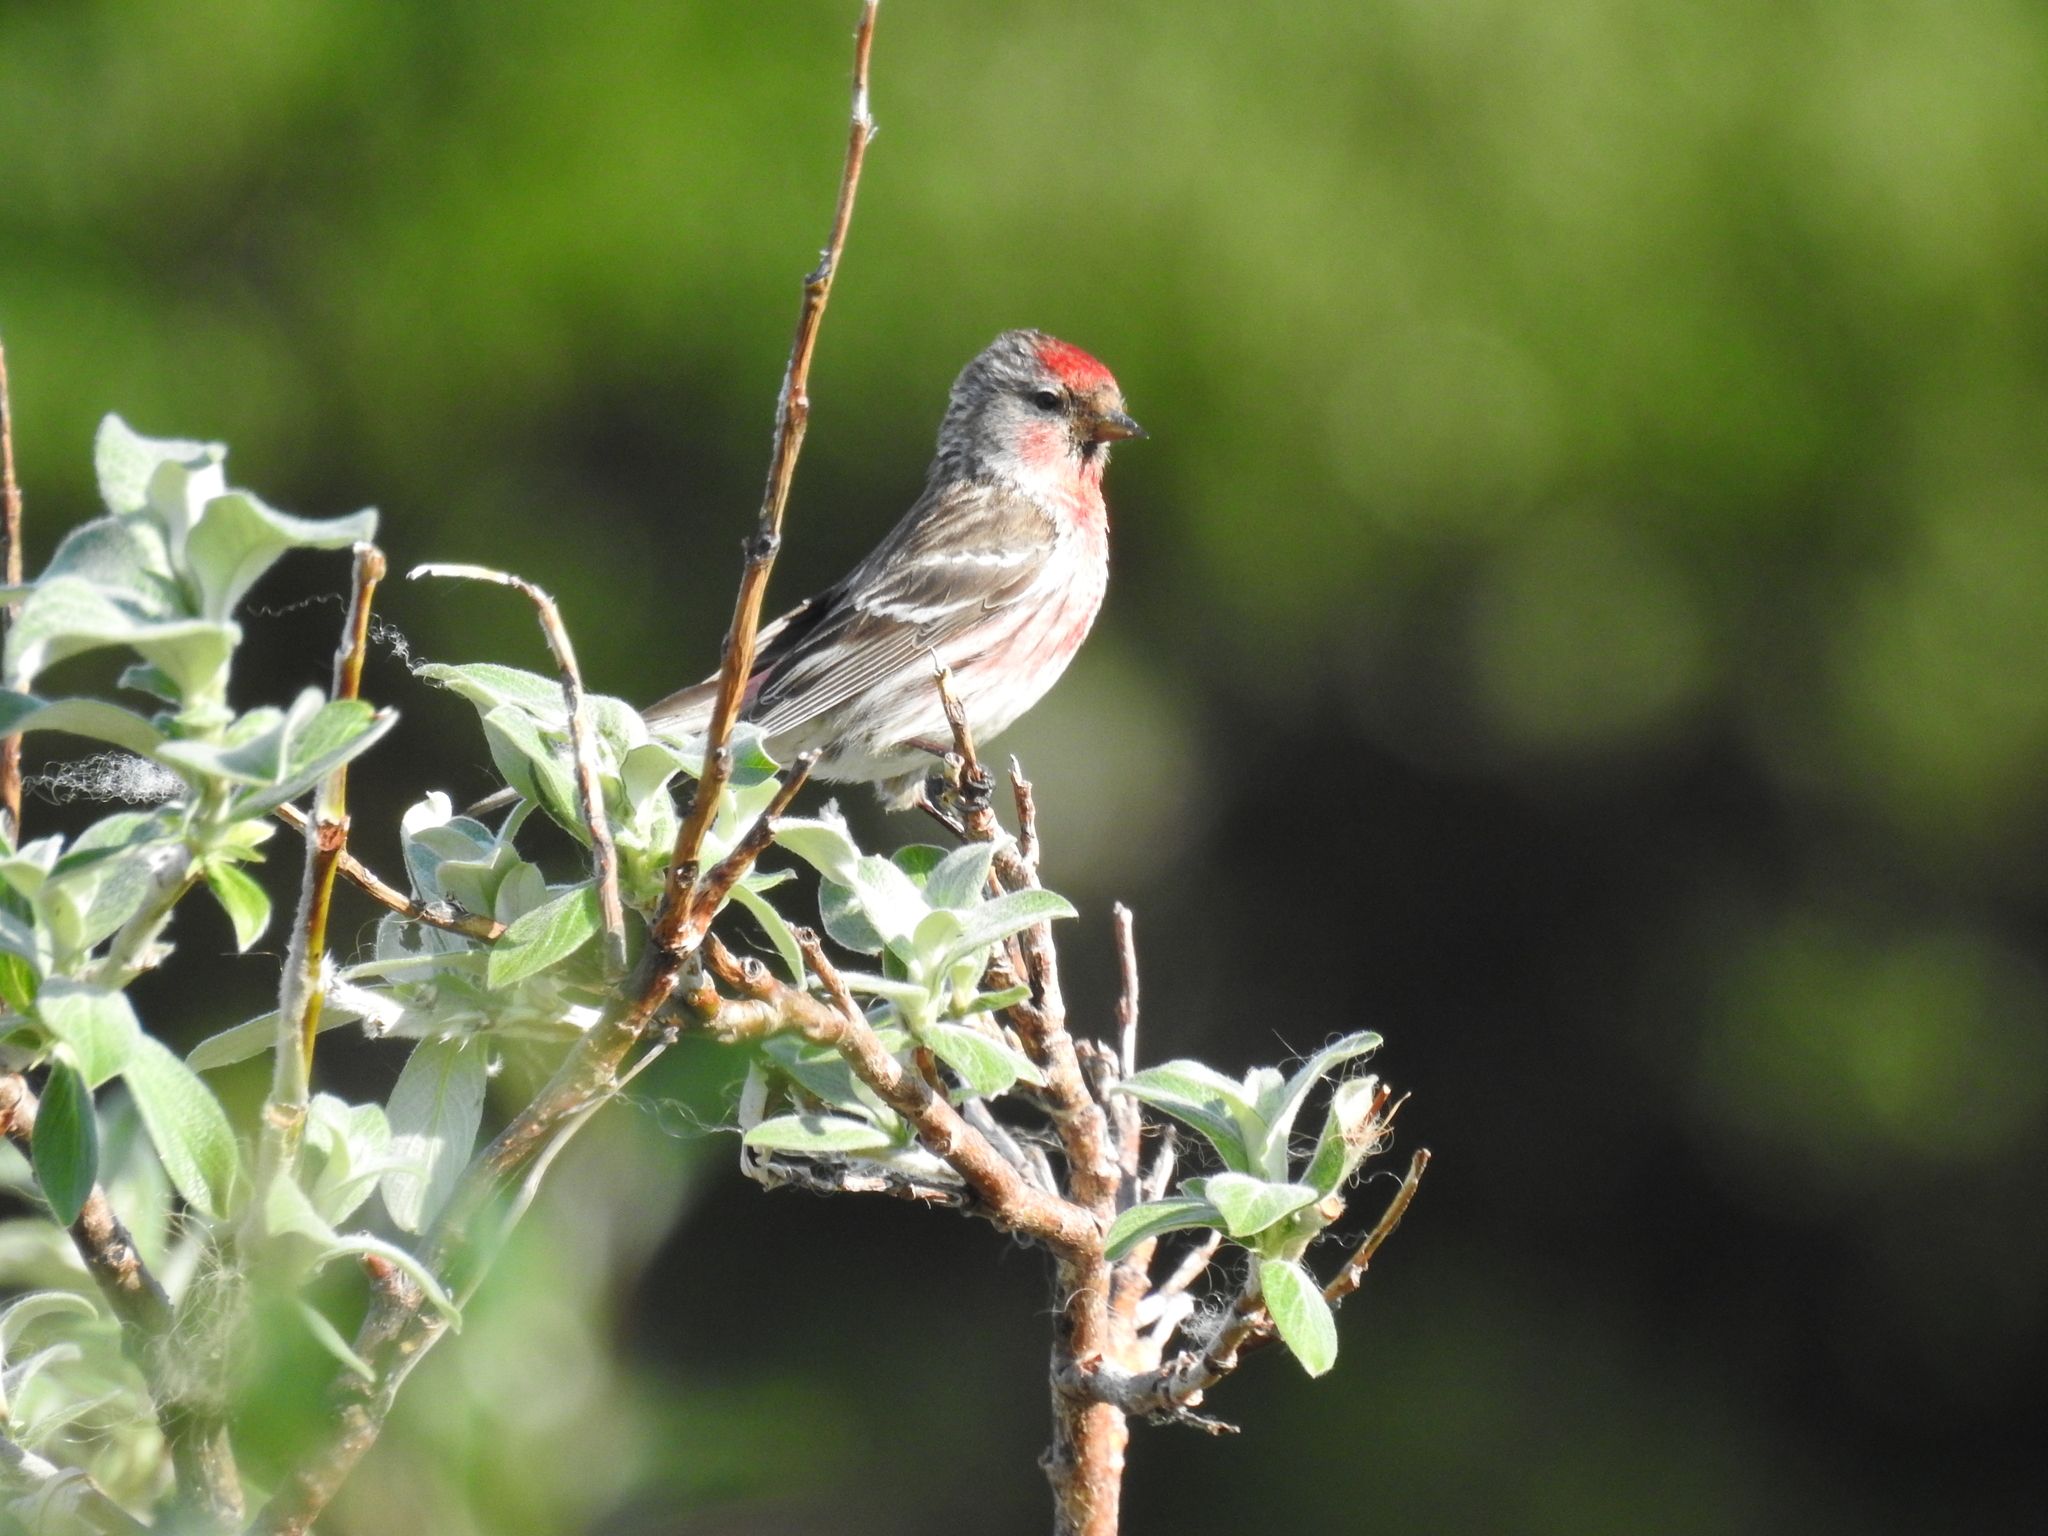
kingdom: Animalia
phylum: Chordata
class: Aves
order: Passeriformes
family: Fringillidae
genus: Acanthis
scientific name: Acanthis flammea
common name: Common redpoll
